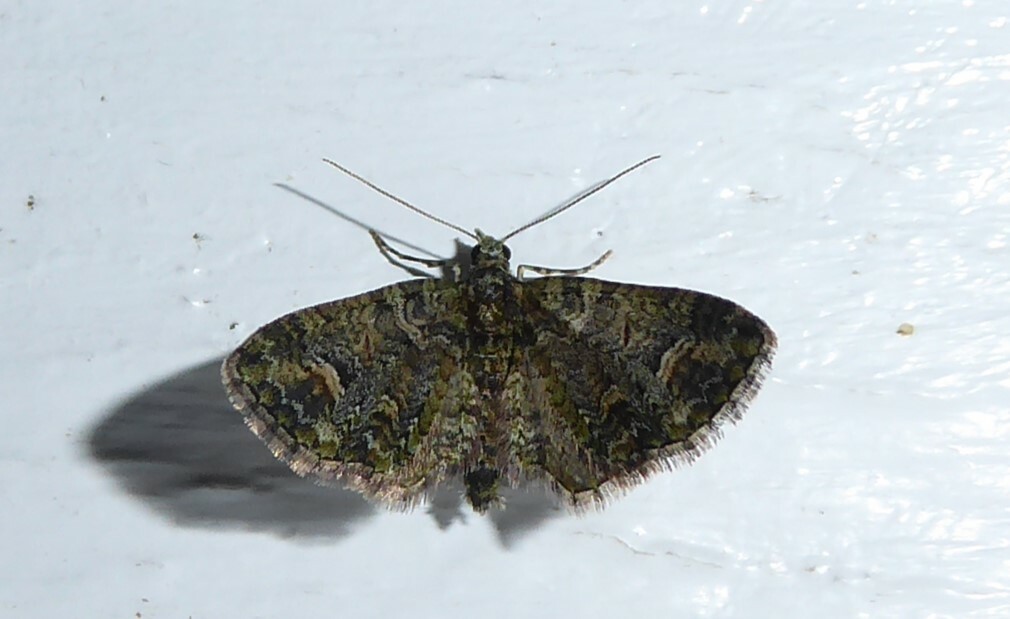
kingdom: Animalia
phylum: Arthropoda
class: Insecta
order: Lepidoptera
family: Geometridae
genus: Idaea
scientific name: Idaea mutanda
